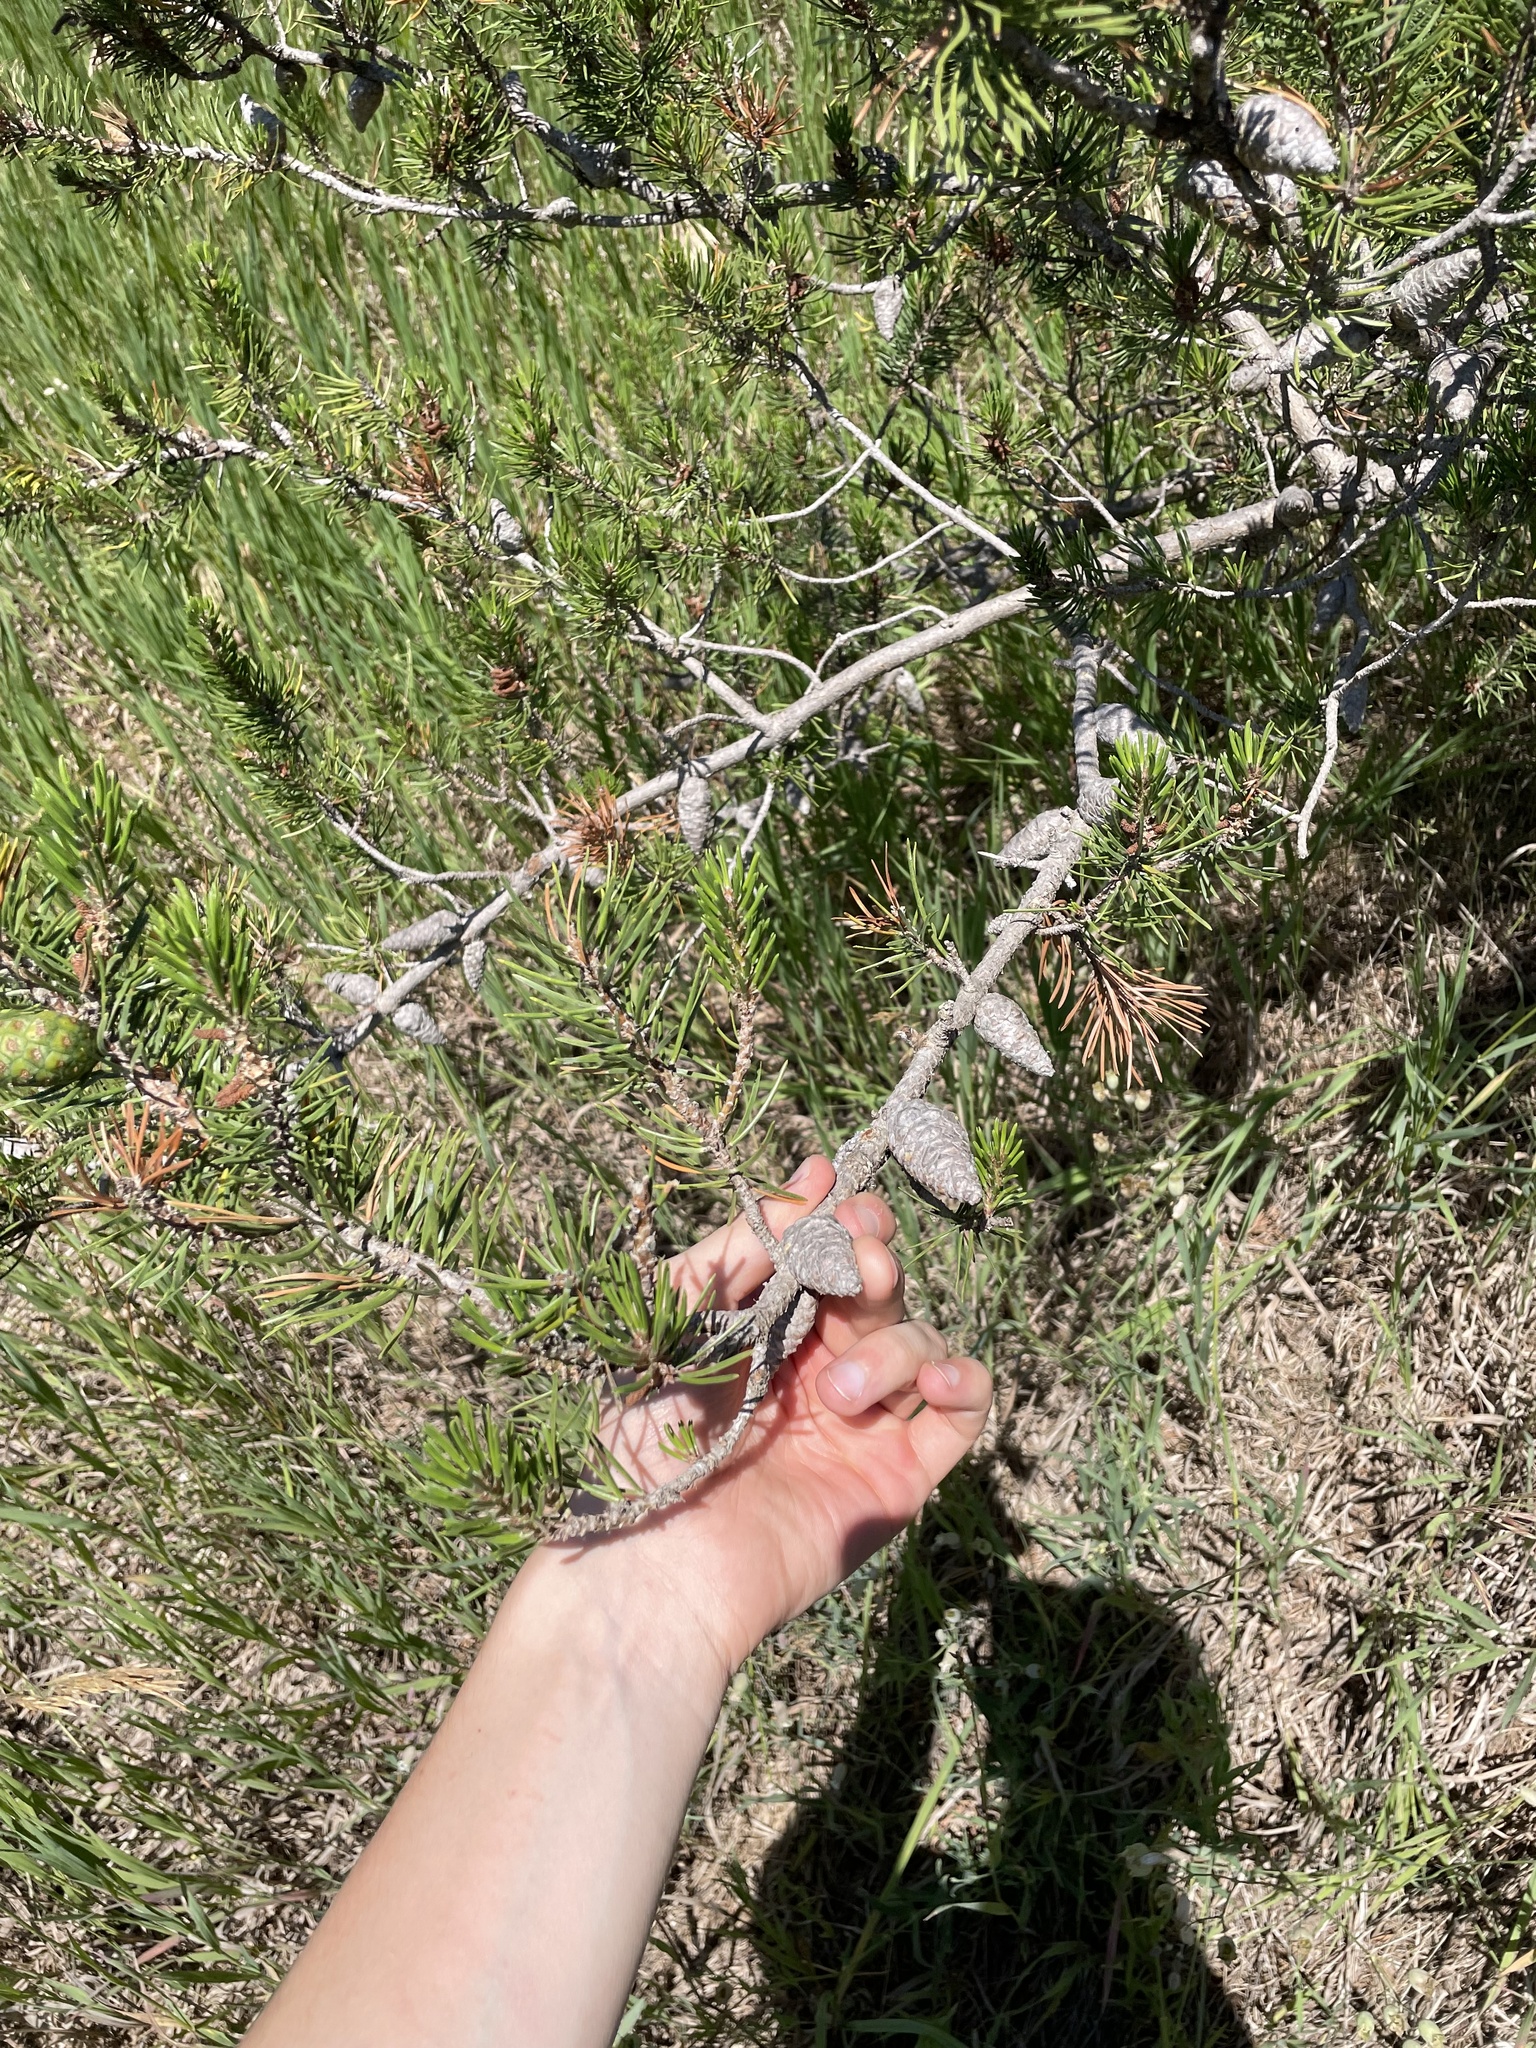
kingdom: Plantae
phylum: Tracheophyta
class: Pinopsida
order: Pinales
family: Pinaceae
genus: Pinus
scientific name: Pinus banksiana
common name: Jack pine
